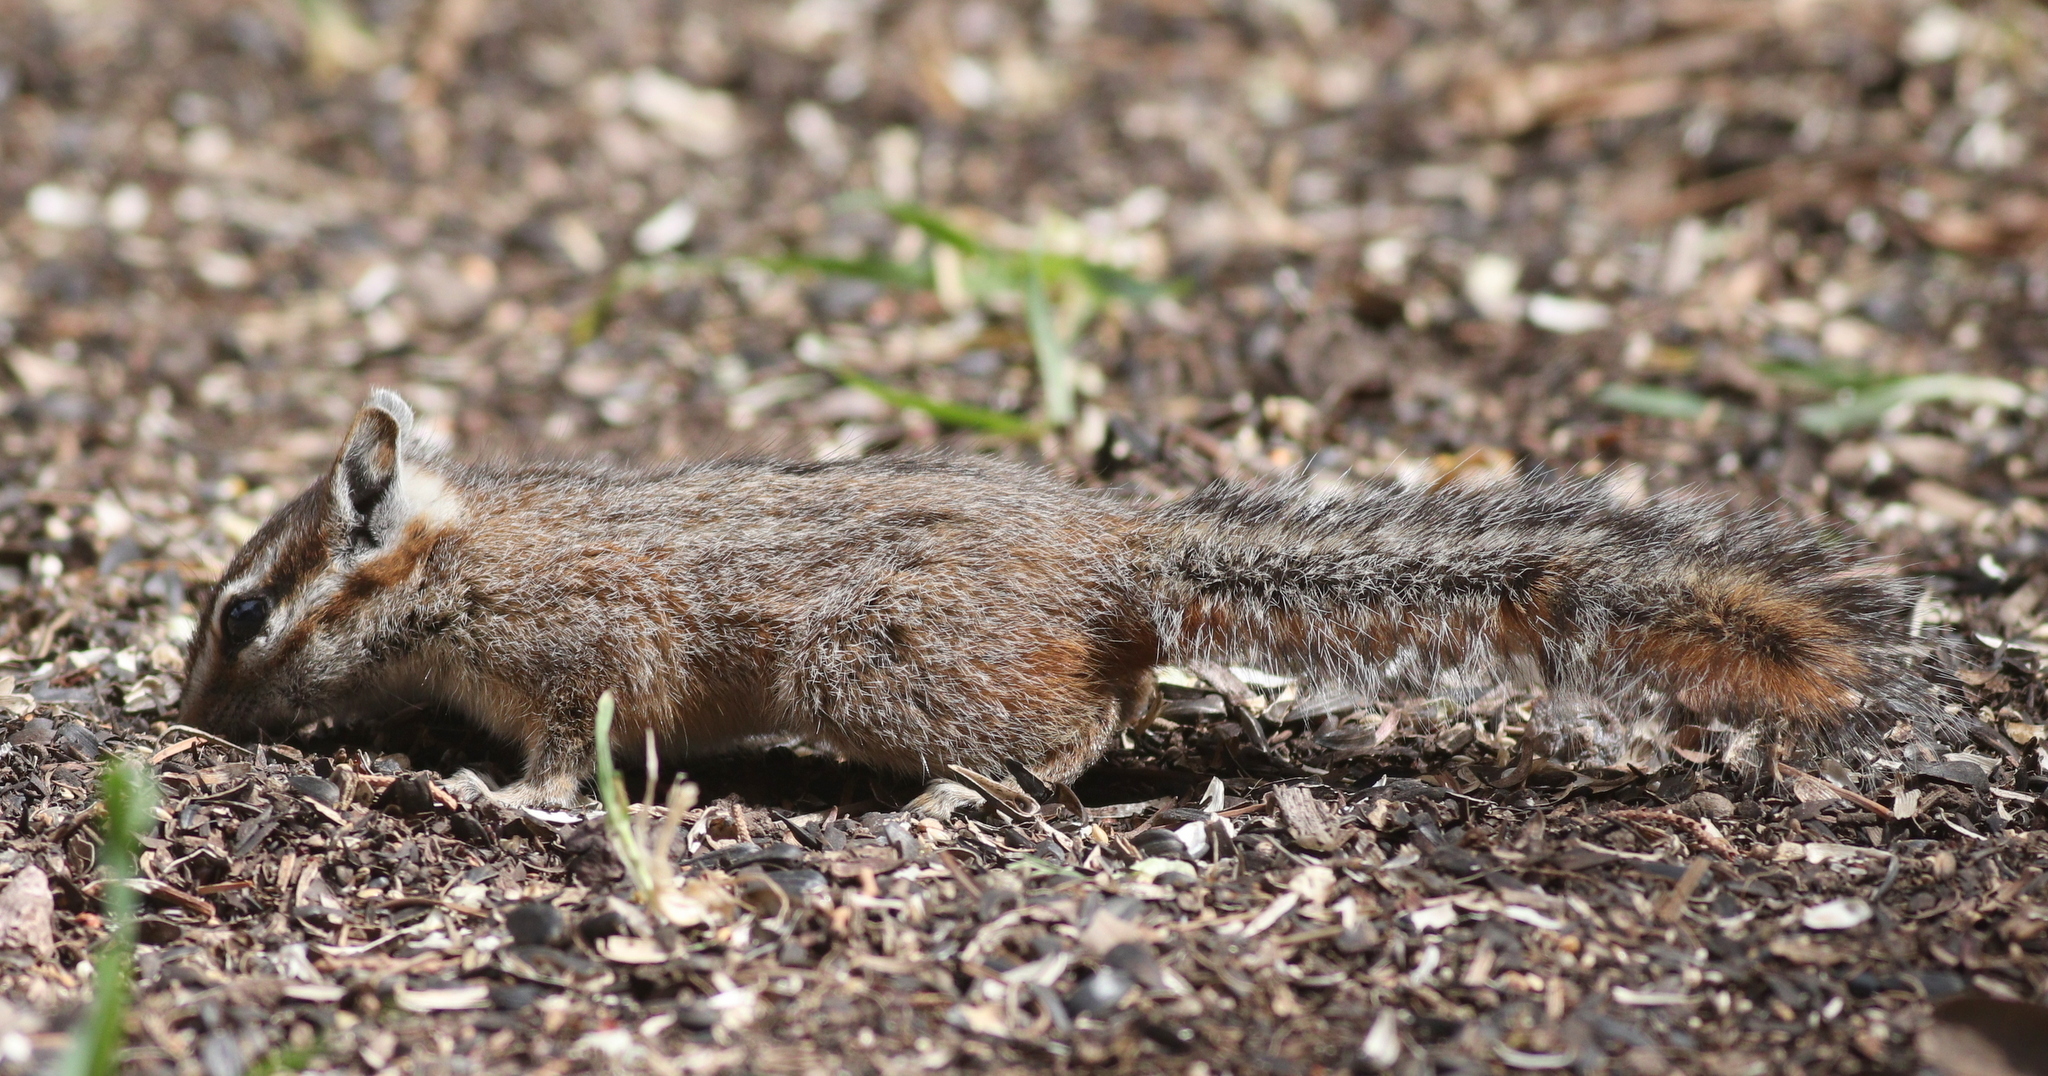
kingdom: Animalia
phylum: Chordata
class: Mammalia
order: Rodentia
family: Sciuridae
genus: Tamias
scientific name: Tamias dorsalis
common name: Cliff chipmunk
